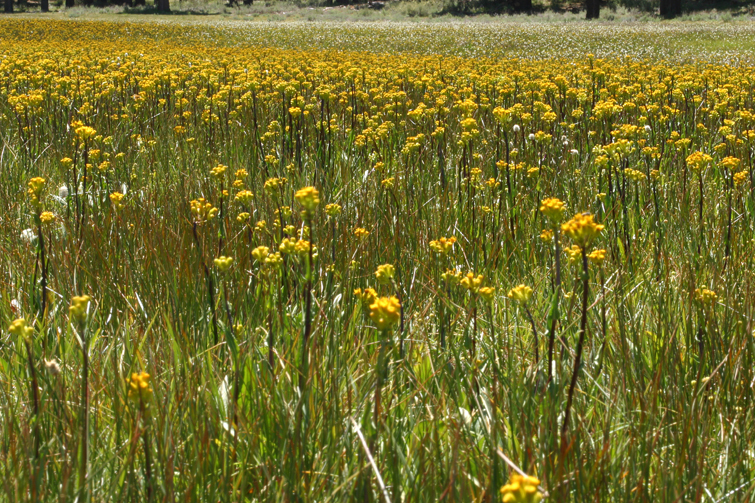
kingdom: Plantae
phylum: Tracheophyta
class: Magnoliopsida
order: Asterales
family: Asteraceae
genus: Senecio
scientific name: Senecio hydrophiloides
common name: Stout meadow groundsel
